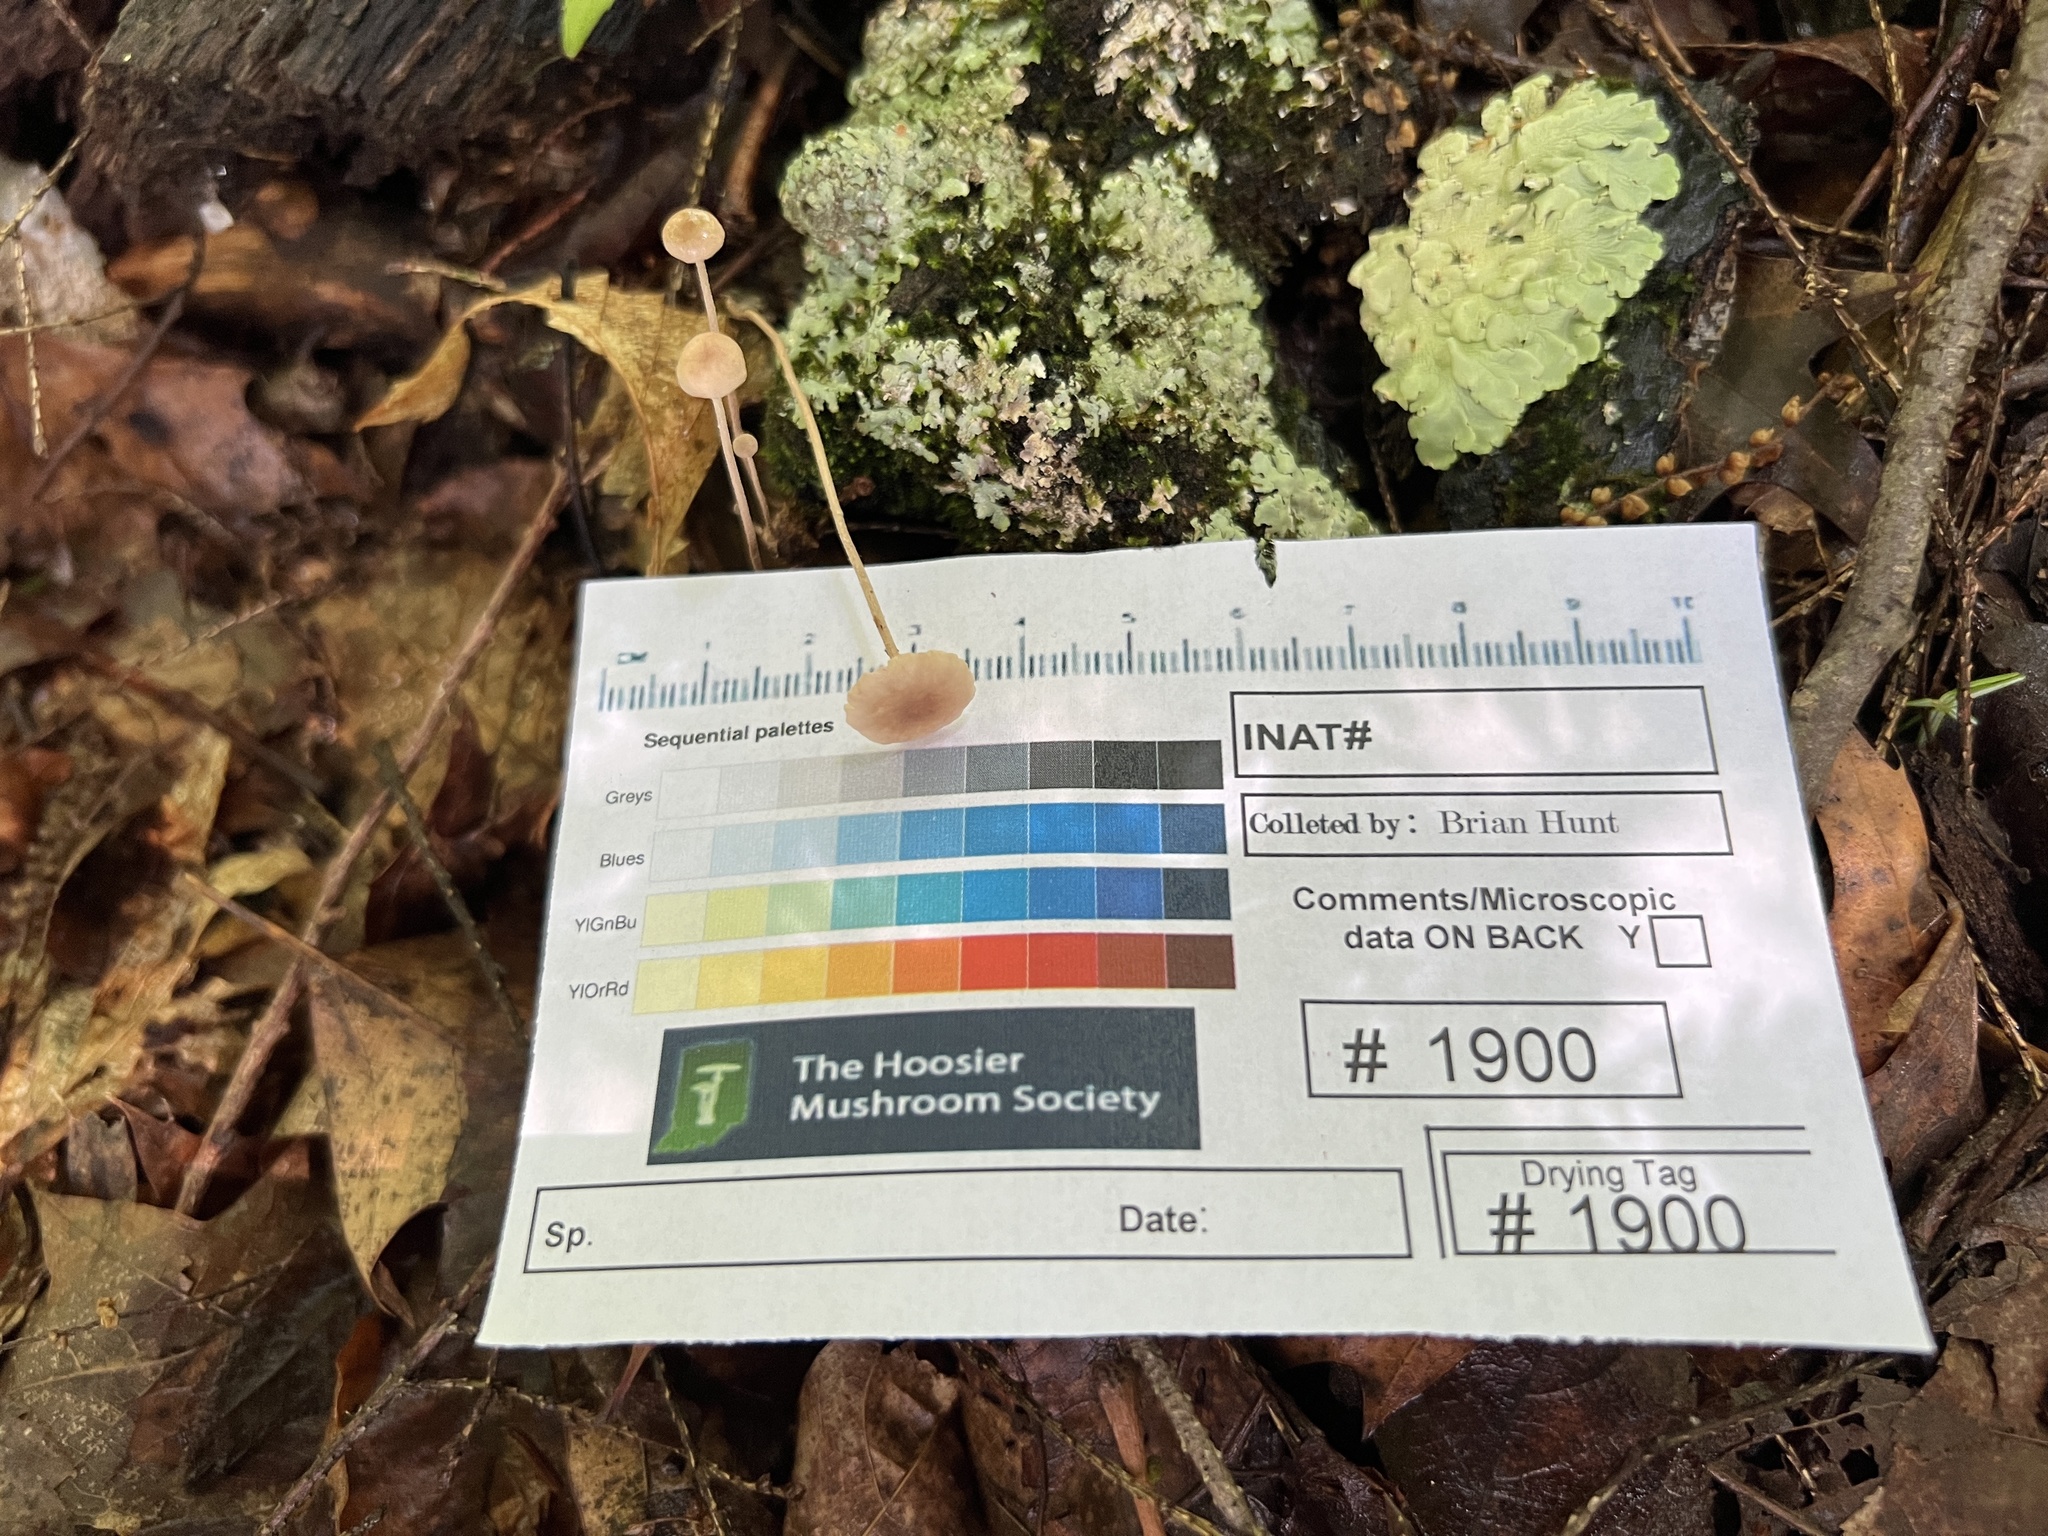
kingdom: Fungi
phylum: Basidiomycota
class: Agaricomycetes
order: Agaricales
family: Omphalotaceae
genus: Mycetinis
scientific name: Mycetinis opacus
